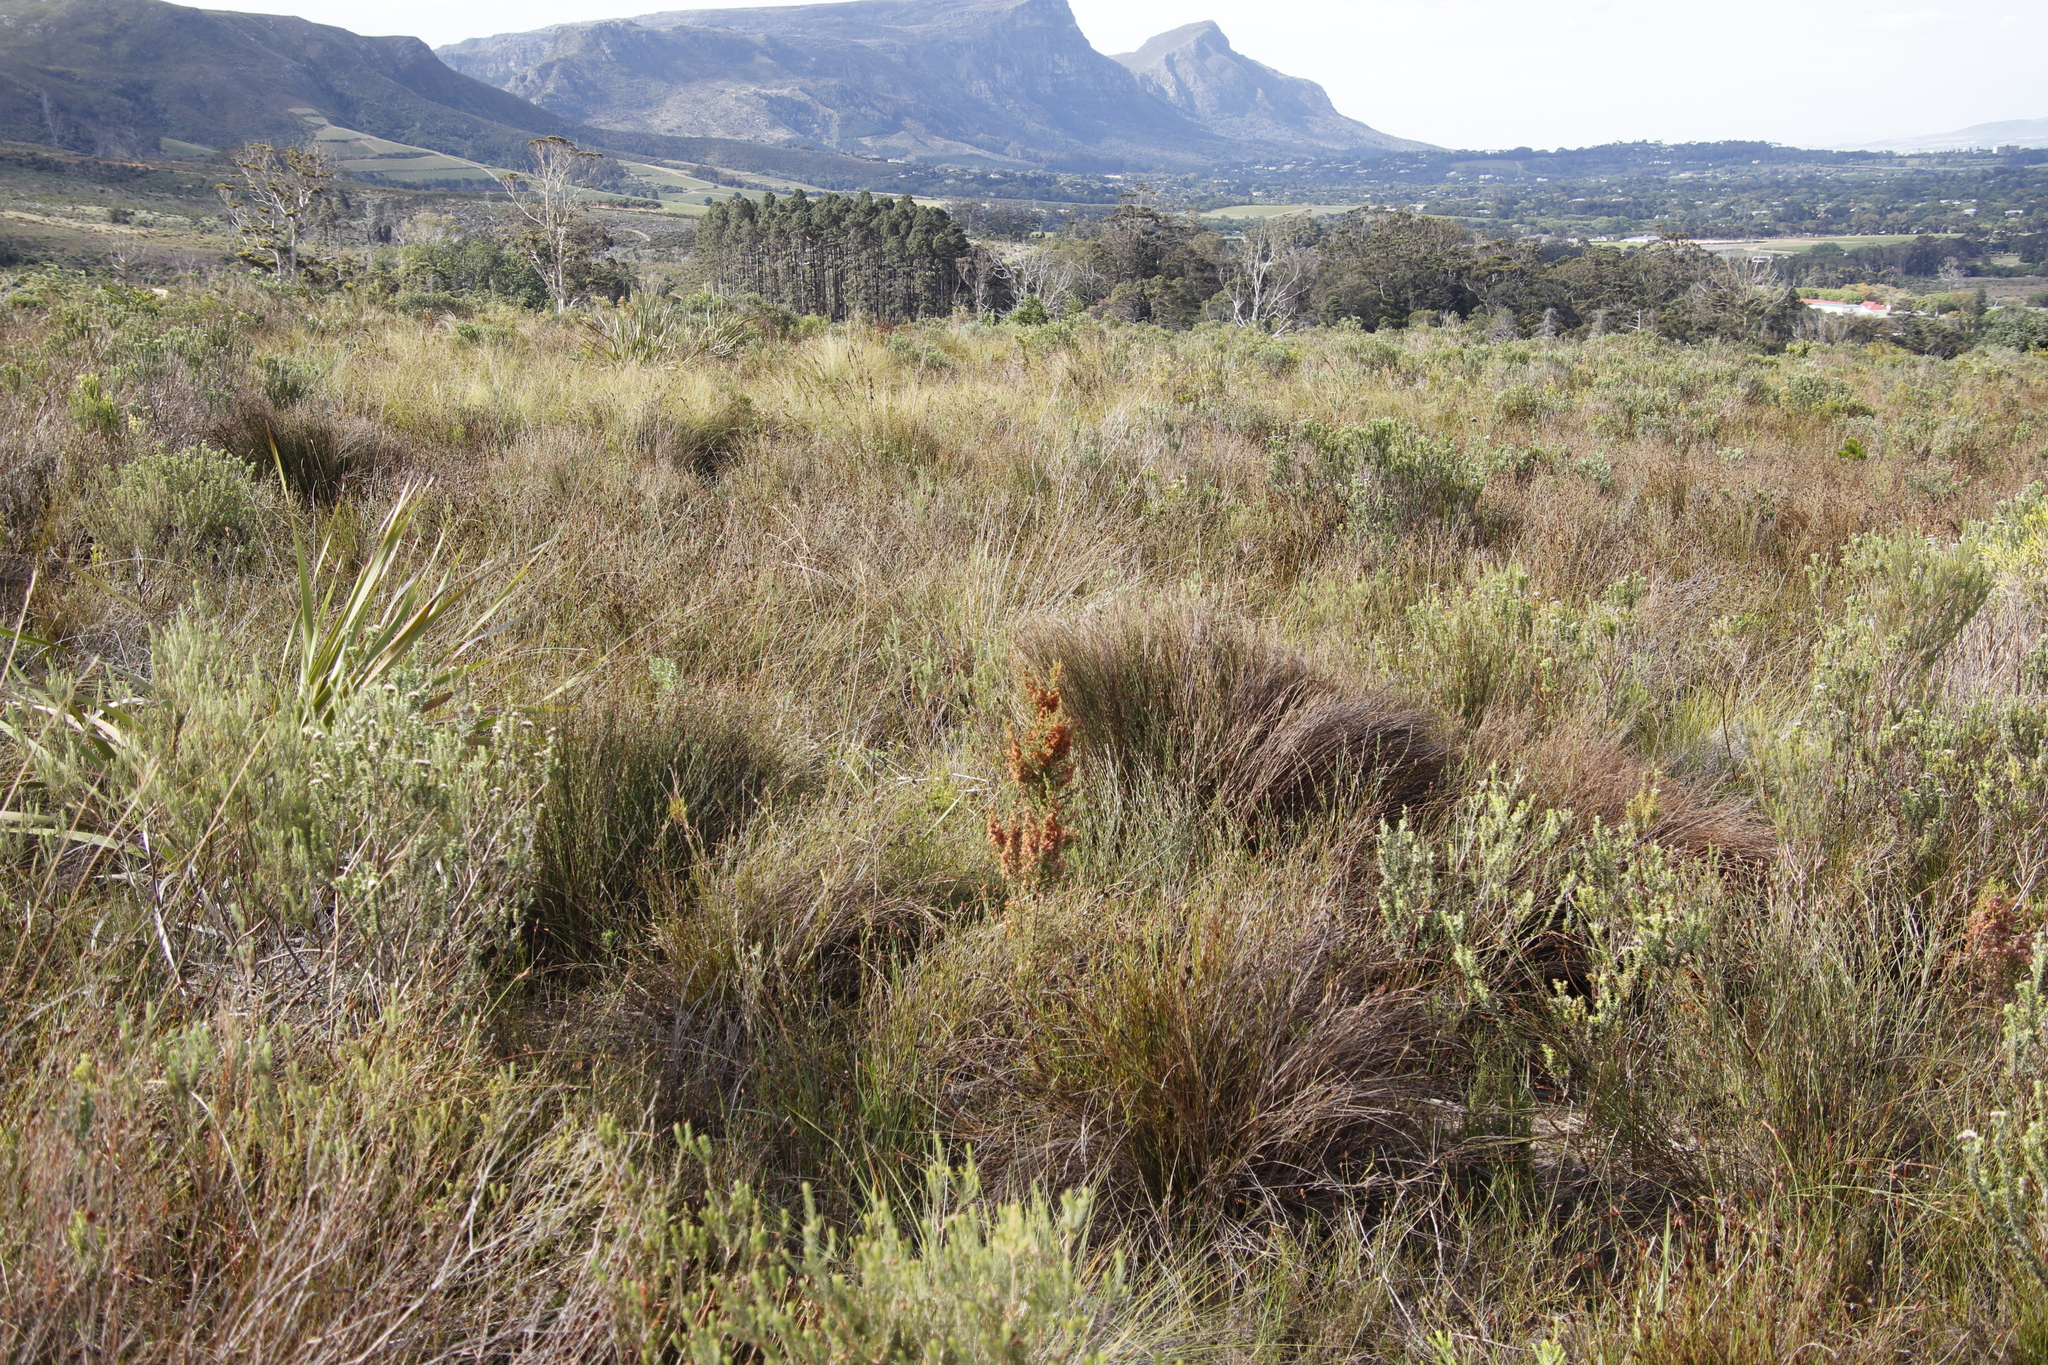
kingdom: Plantae
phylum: Tracheophyta
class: Magnoliopsida
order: Ericales
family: Ericaceae
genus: Erica
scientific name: Erica mauritanica
